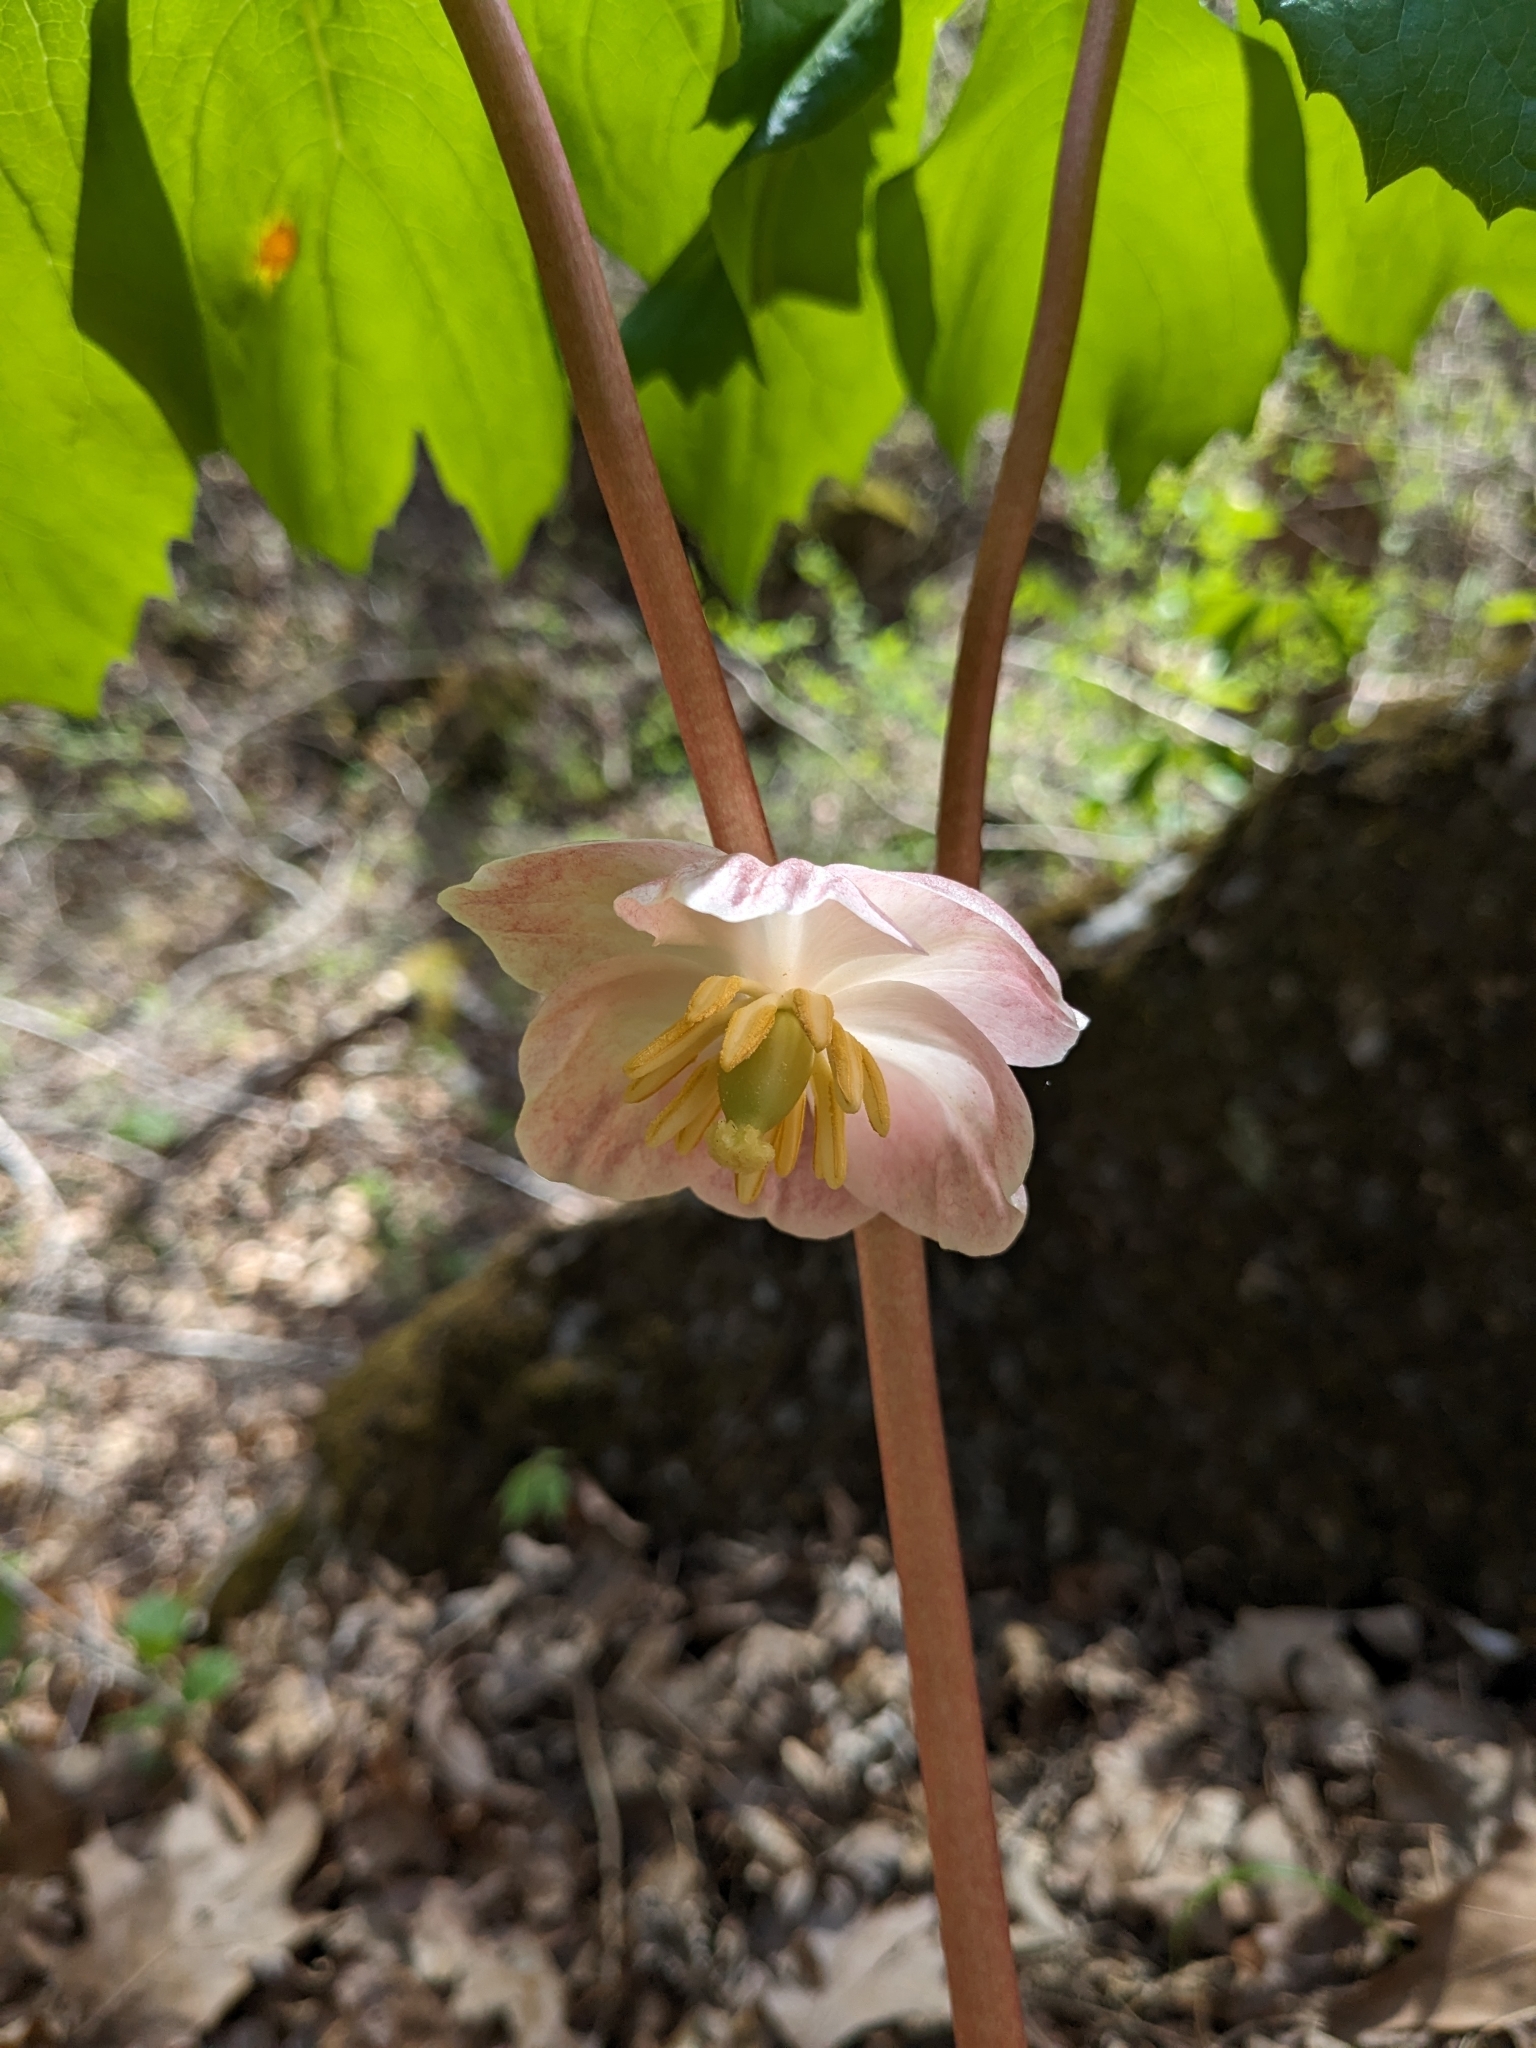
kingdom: Plantae
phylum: Tracheophyta
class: Magnoliopsida
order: Ranunculales
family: Berberidaceae
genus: Podophyllum
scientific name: Podophyllum peltatum
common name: Wild mandrake
